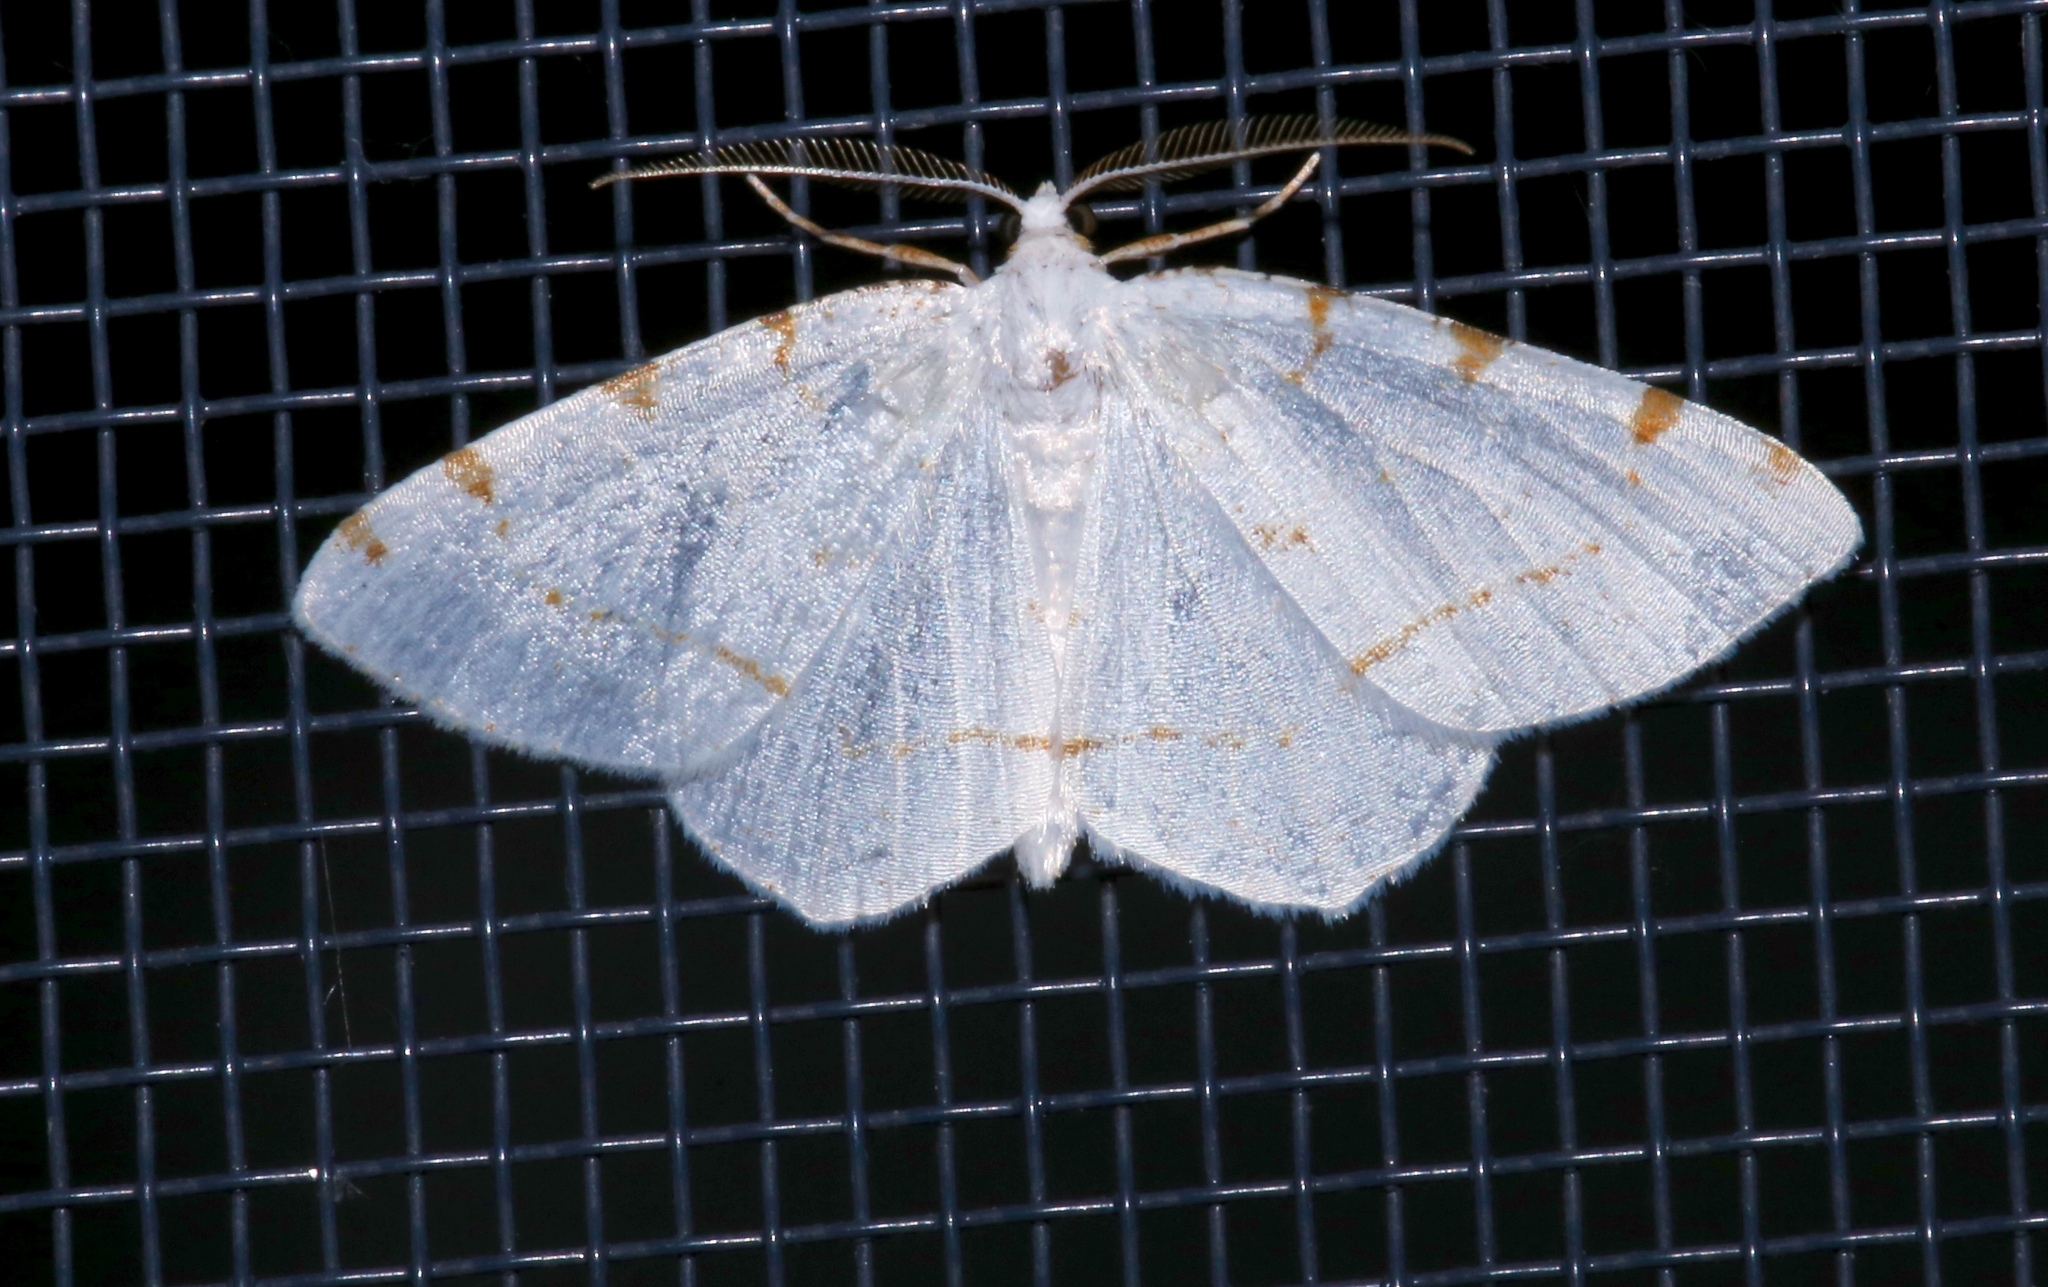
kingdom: Animalia
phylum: Arthropoda
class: Insecta
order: Lepidoptera
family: Geometridae
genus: Macaria
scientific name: Macaria pustularia
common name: Lesser maple spanworm moth
